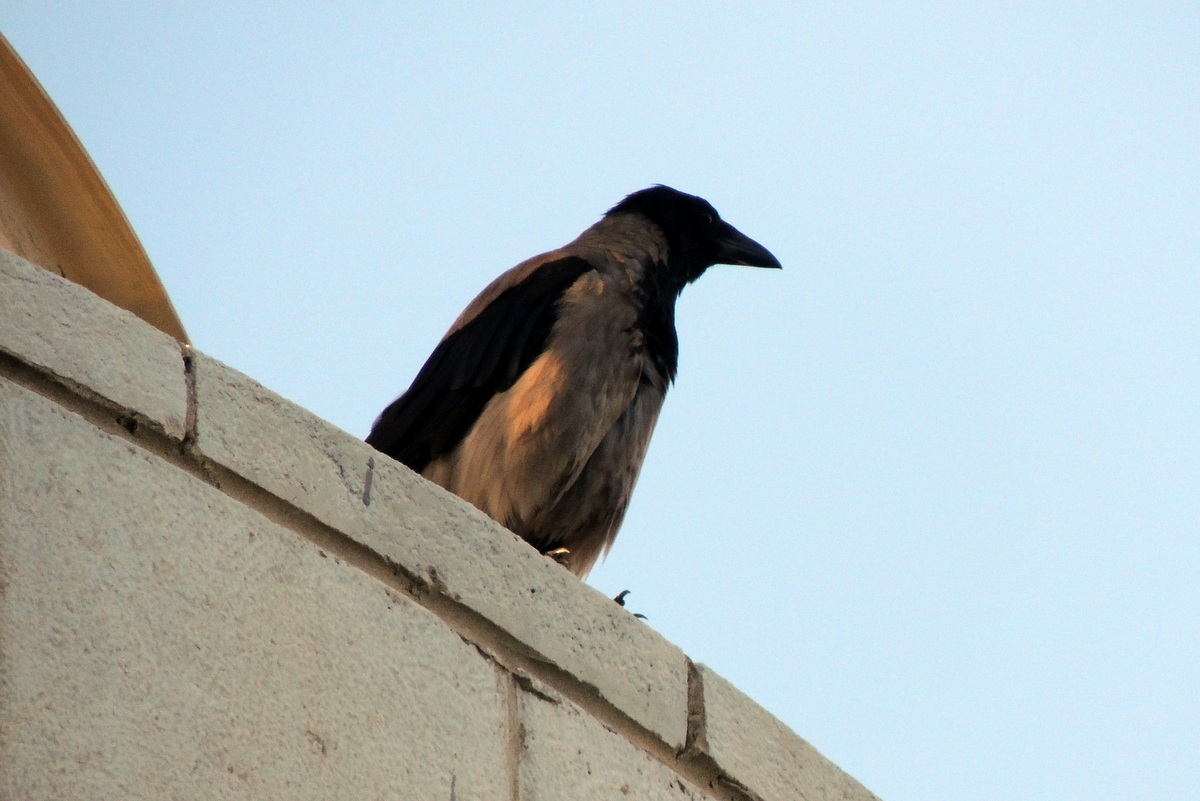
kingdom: Animalia
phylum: Chordata
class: Aves
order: Passeriformes
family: Corvidae
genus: Corvus
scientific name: Corvus cornix
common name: Hooded crow
